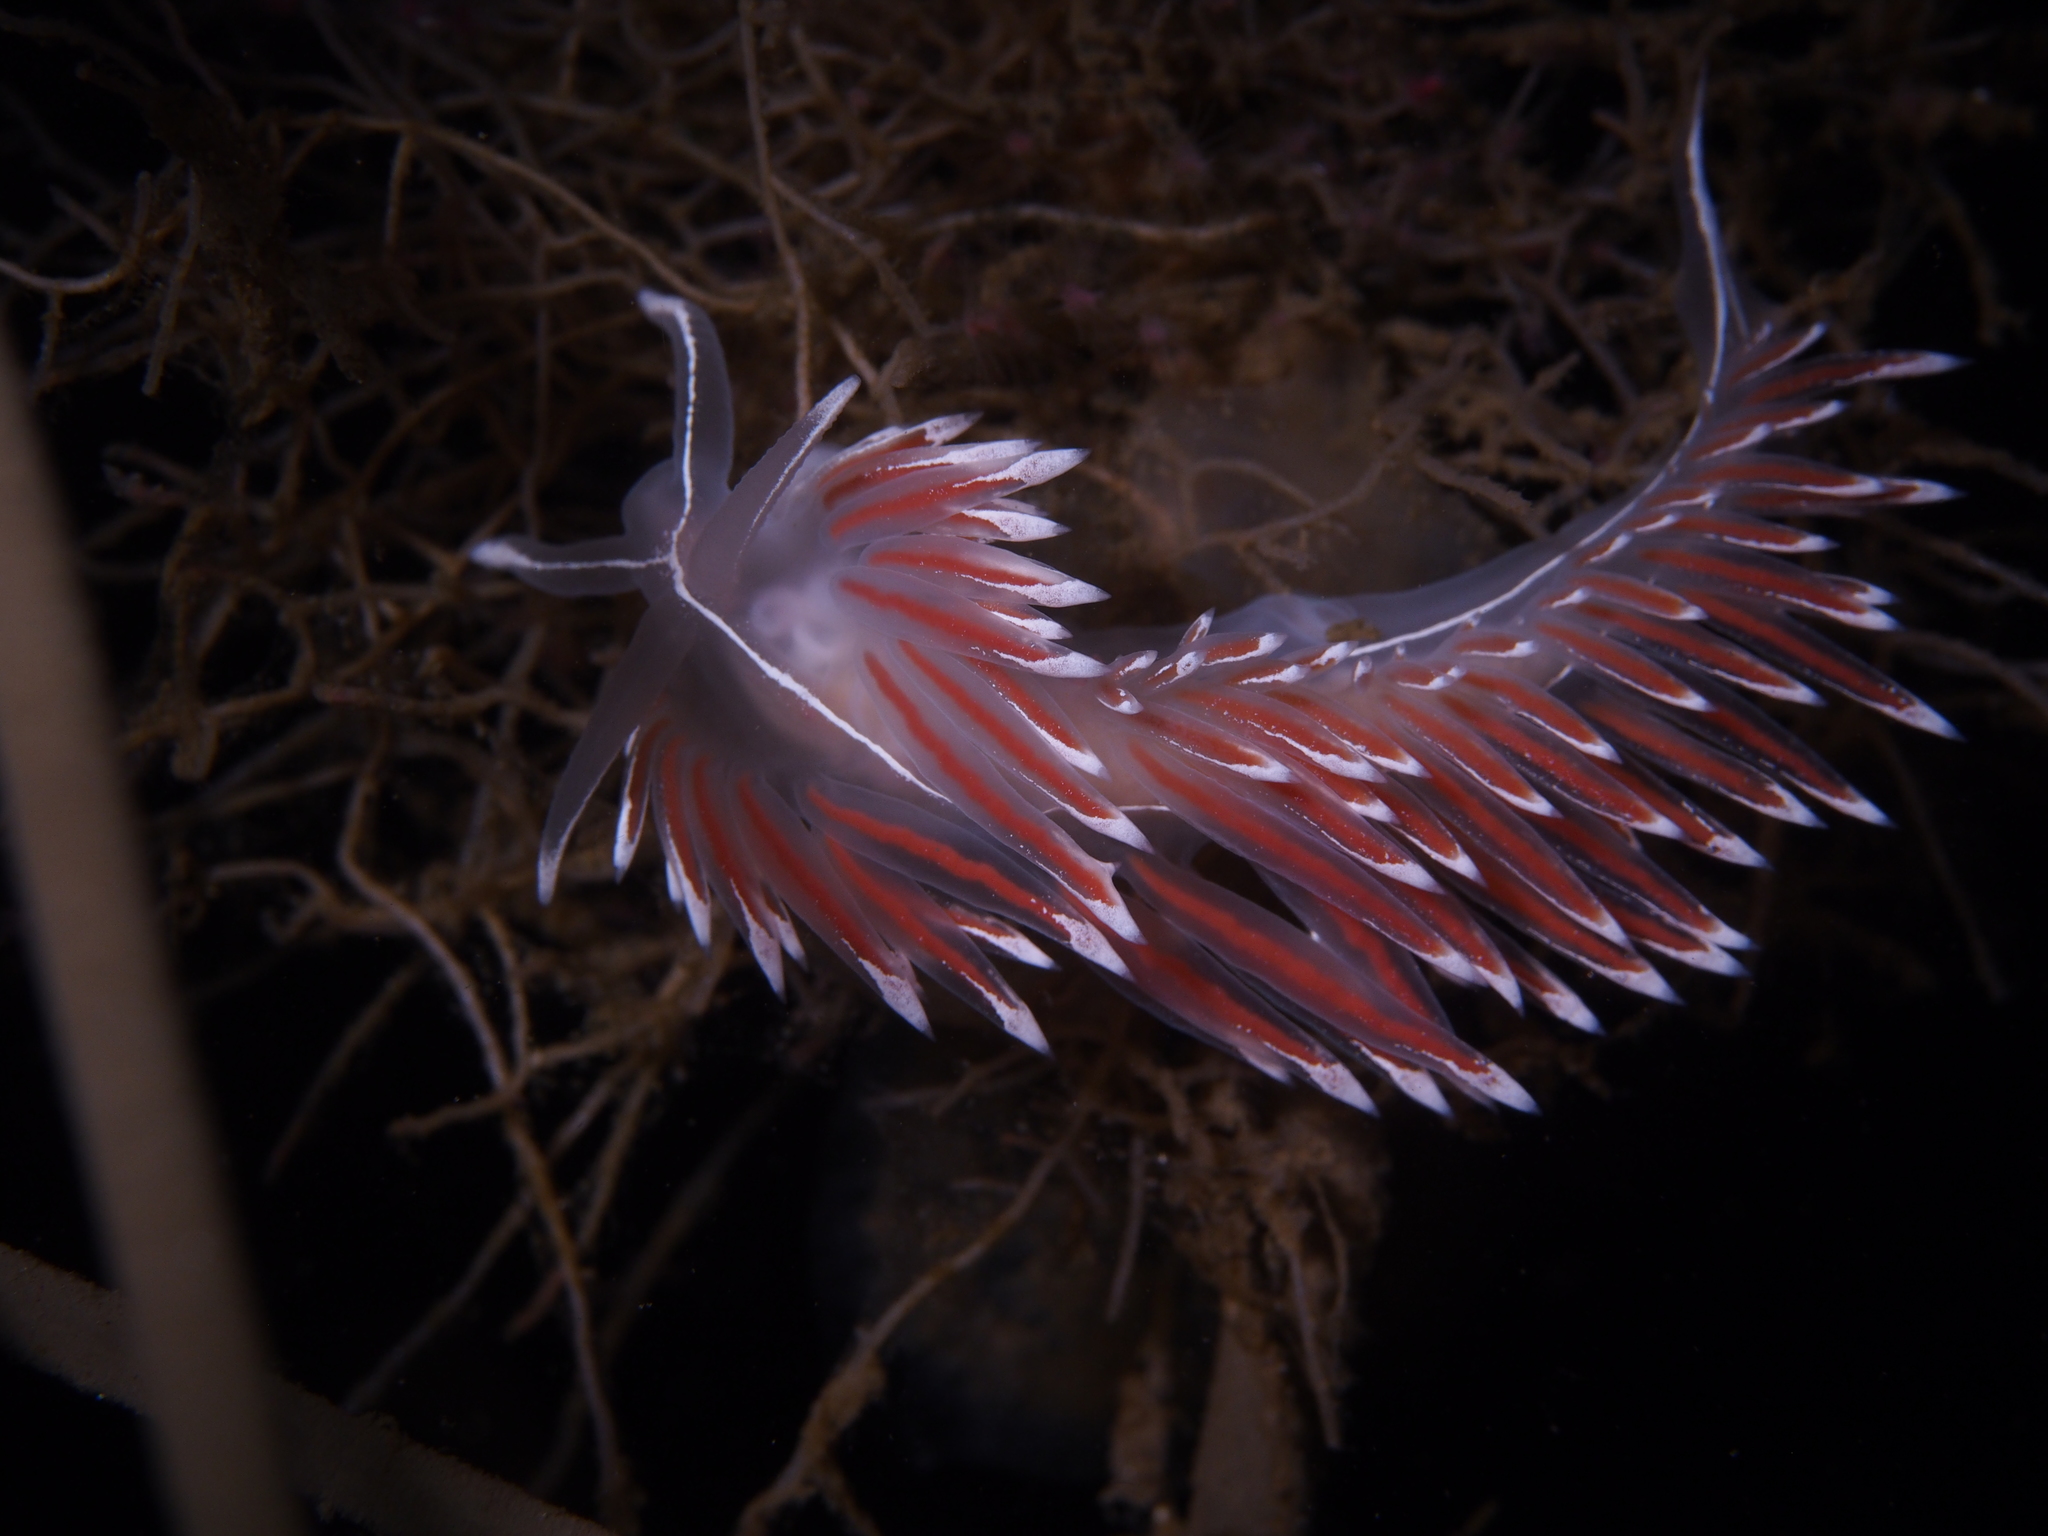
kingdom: Animalia
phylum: Mollusca
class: Gastropoda
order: Nudibranchia
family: Coryphellidae
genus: Coryphella
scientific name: Coryphella lineata
